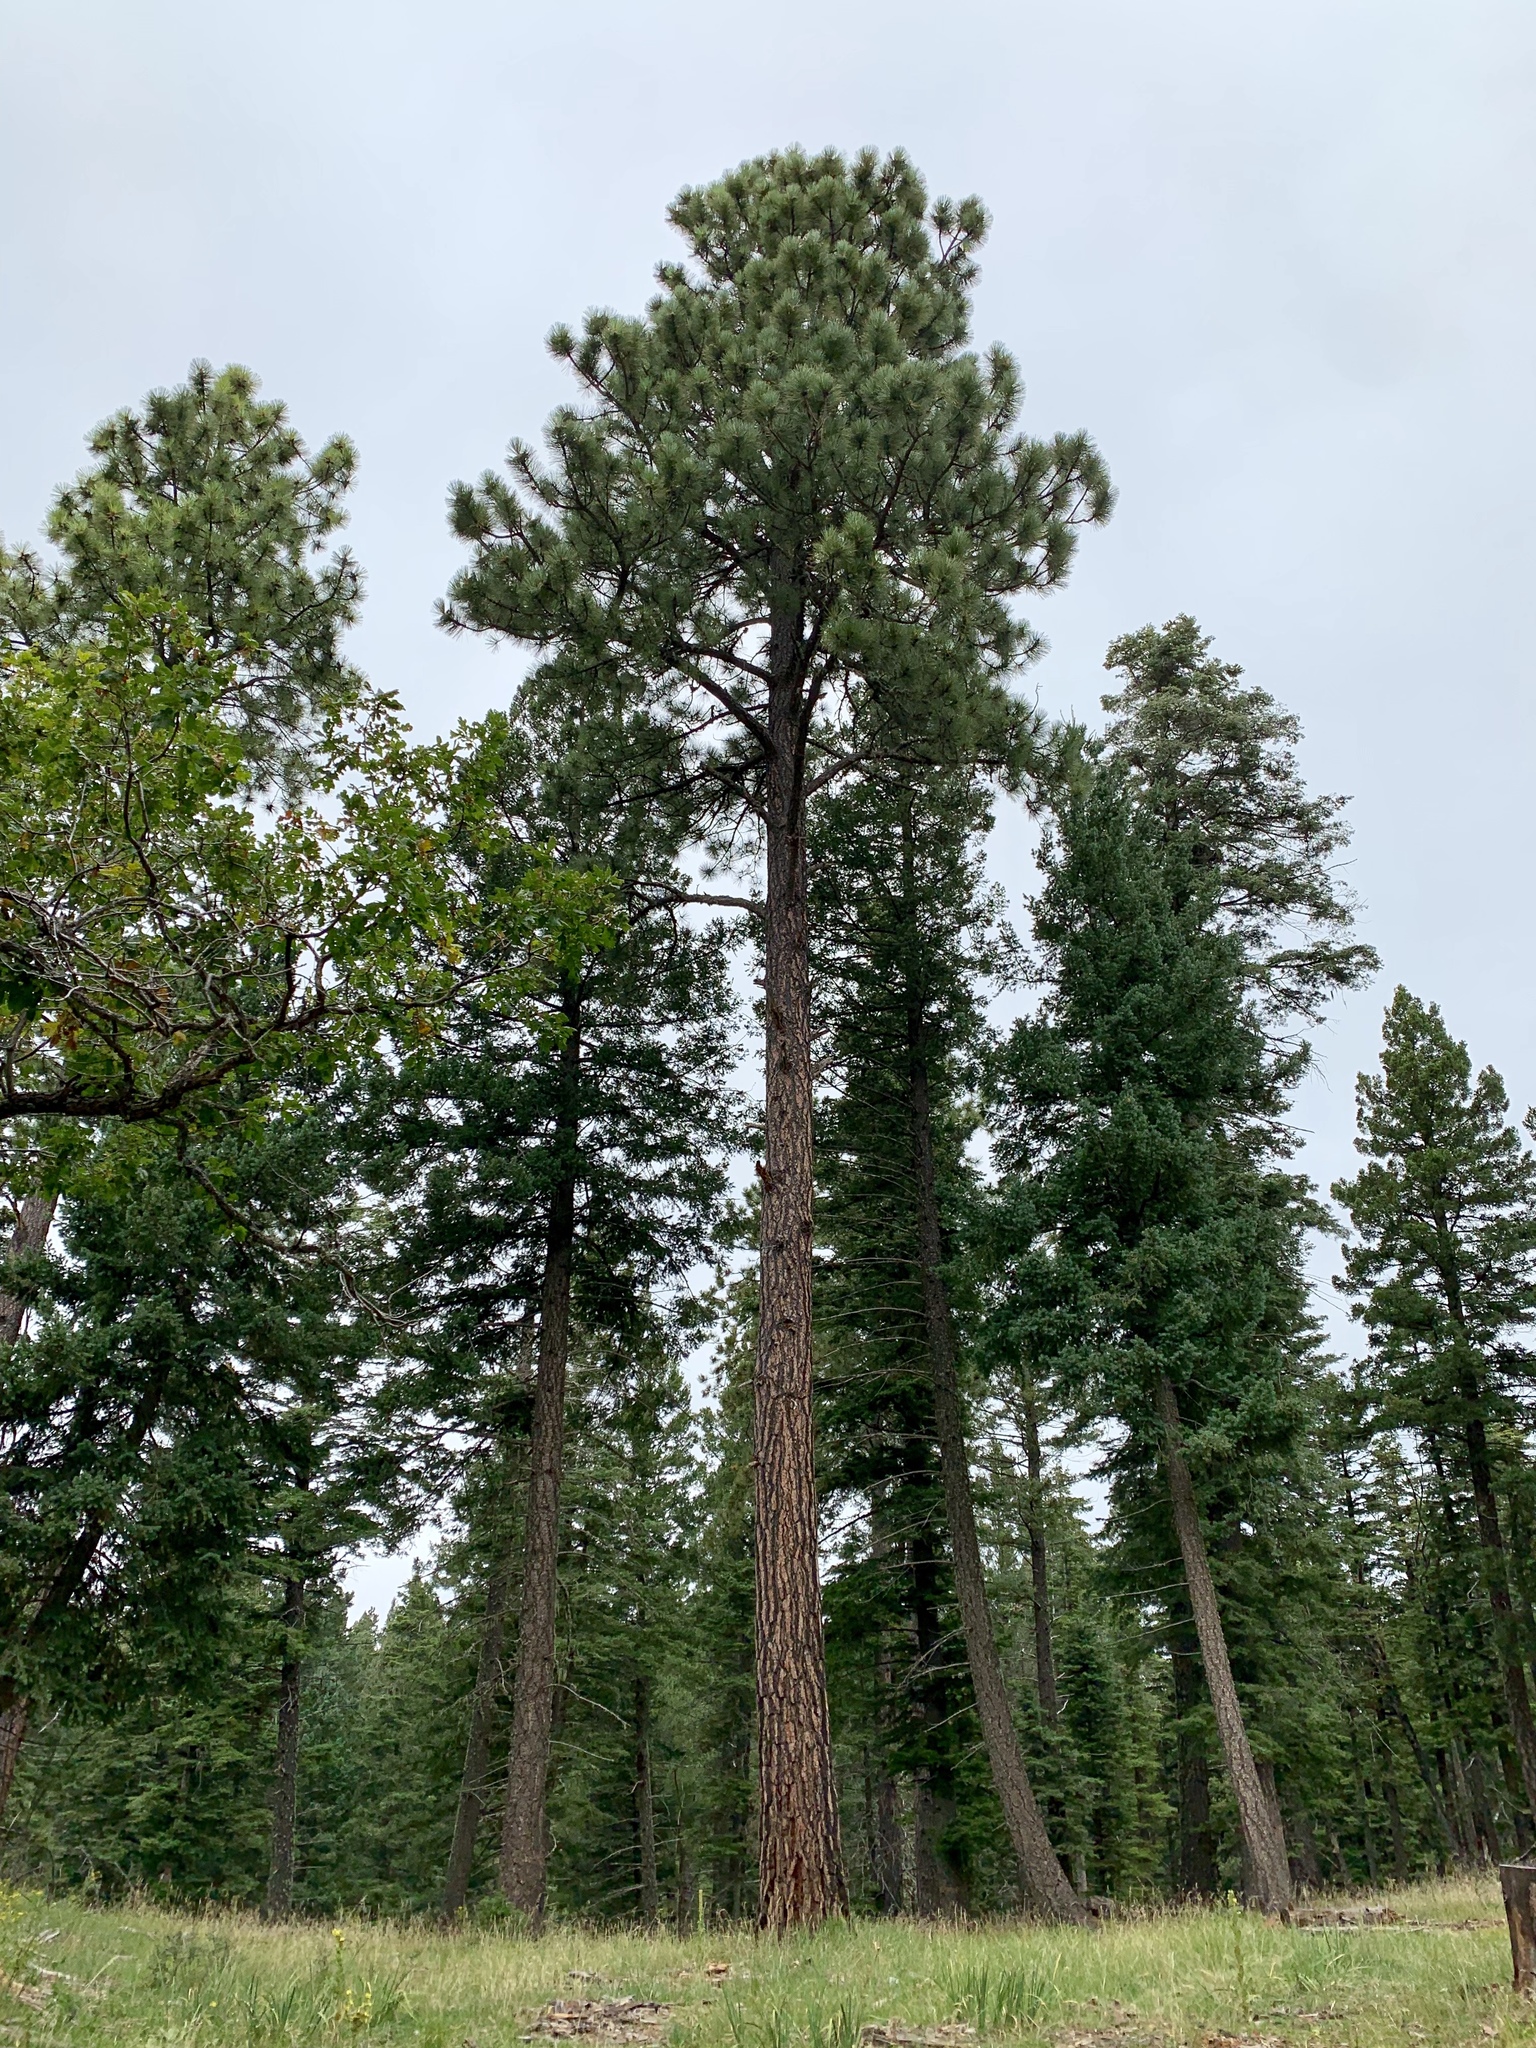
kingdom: Plantae
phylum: Tracheophyta
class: Pinopsida
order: Pinales
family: Pinaceae
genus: Pinus
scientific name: Pinus ponderosa
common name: Western yellow-pine
